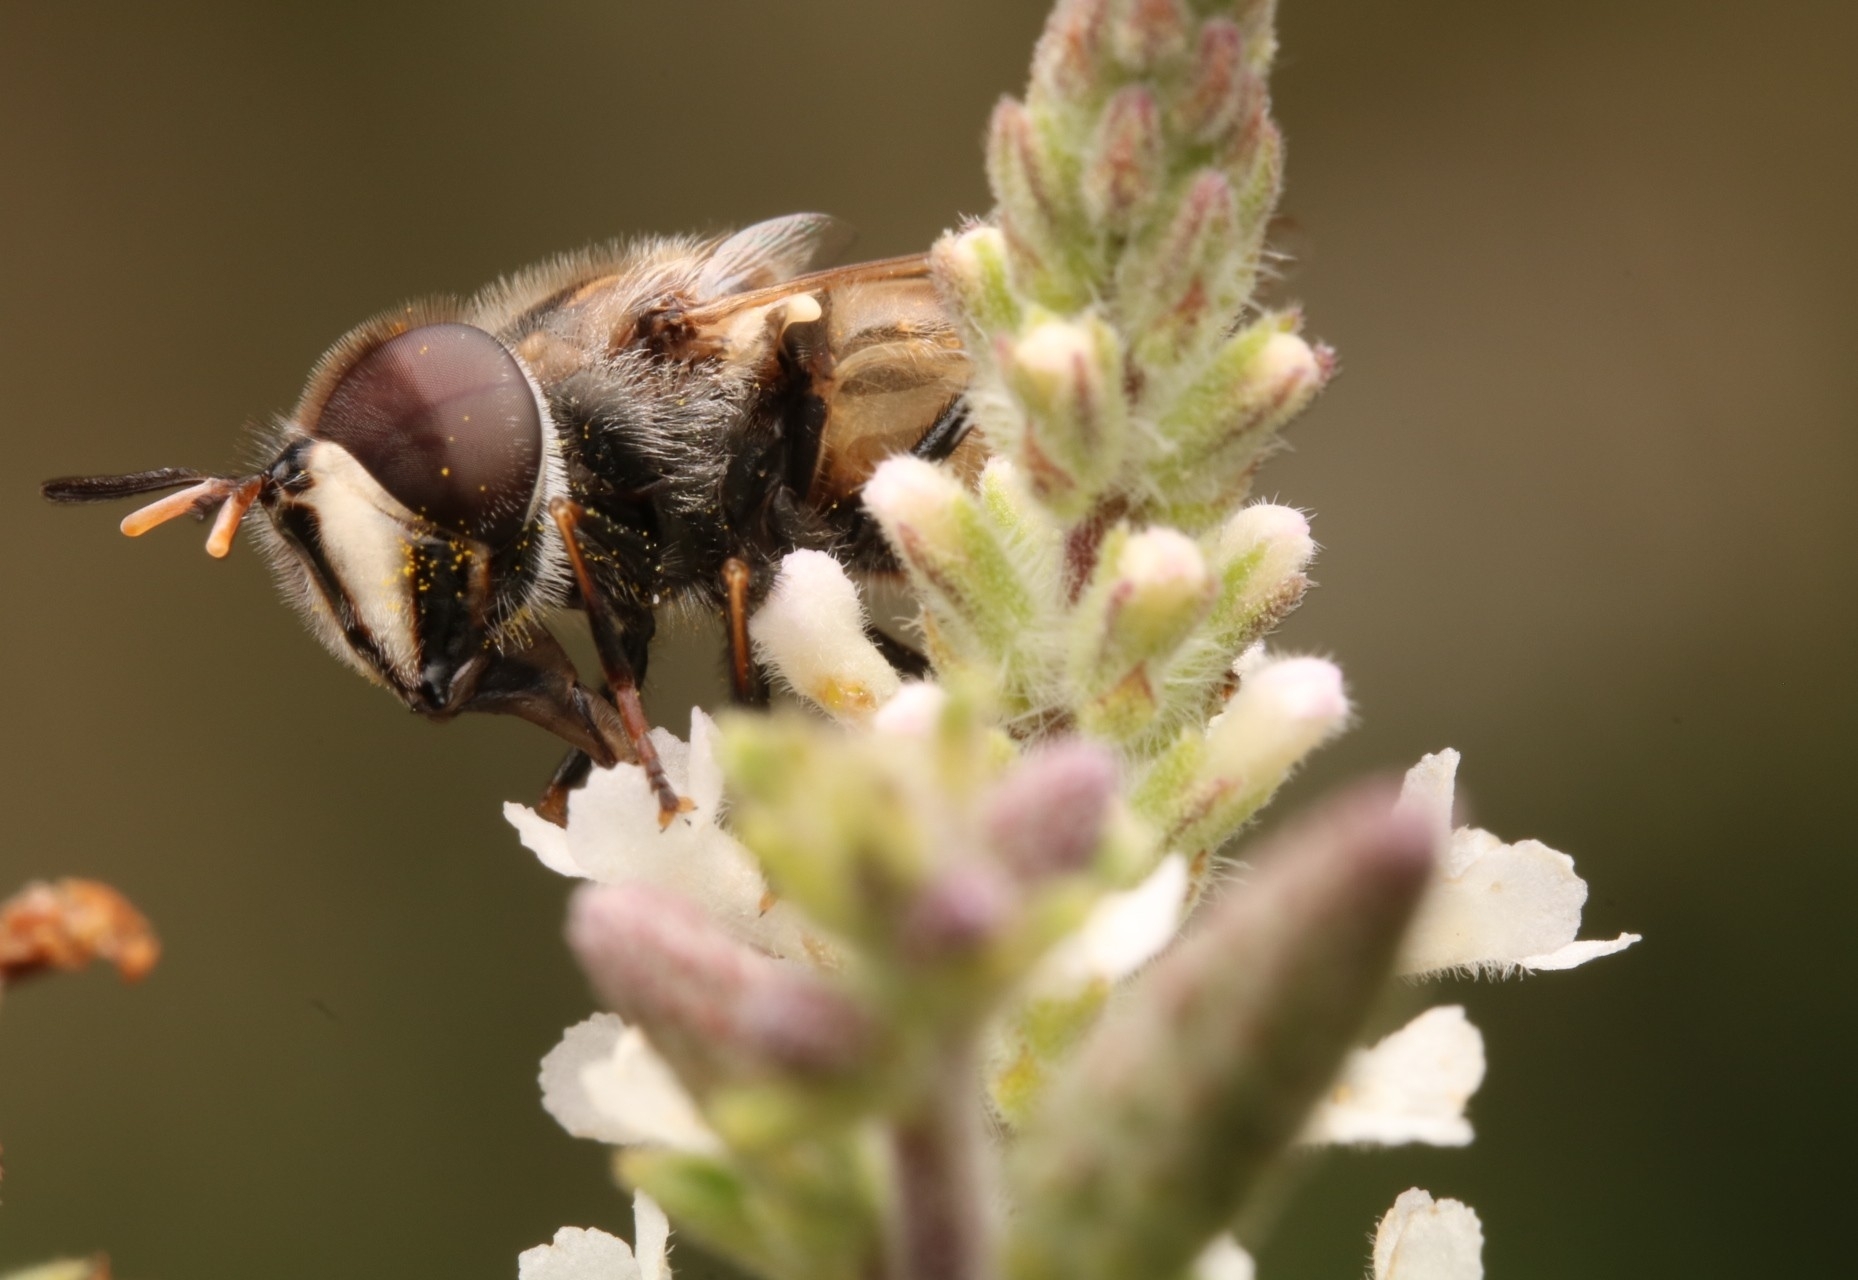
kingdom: Animalia
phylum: Arthropoda
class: Insecta
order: Diptera
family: Syrphidae
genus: Copestylum
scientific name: Copestylum marginatum
